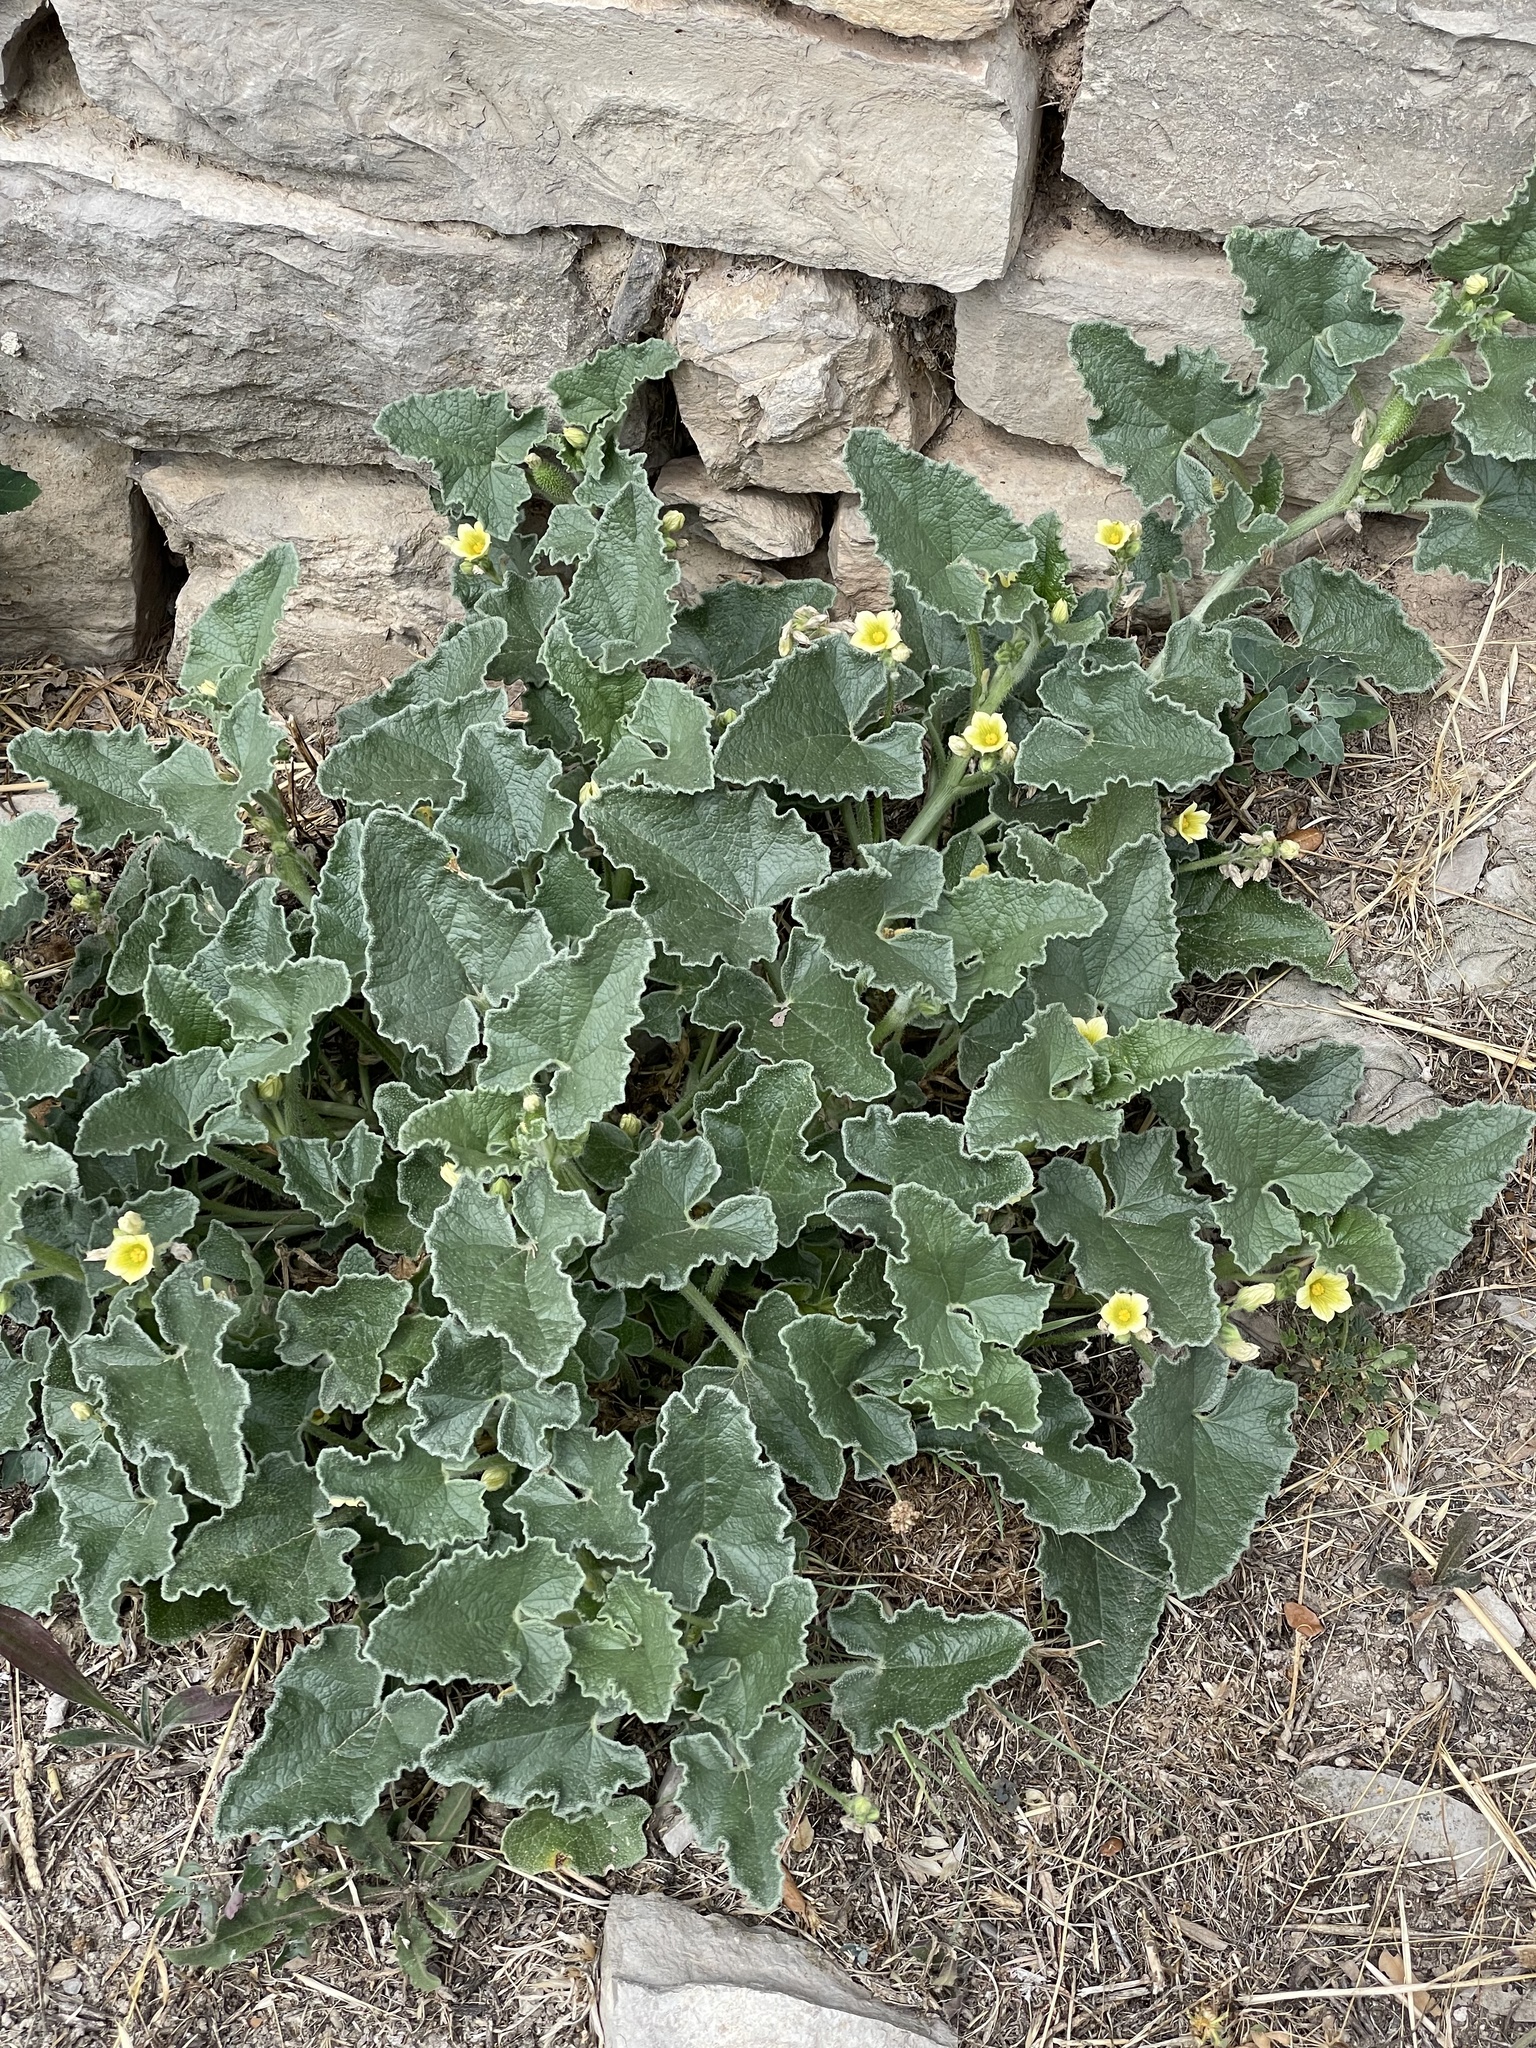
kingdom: Plantae
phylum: Tracheophyta
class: Magnoliopsida
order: Cucurbitales
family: Cucurbitaceae
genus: Ecballium
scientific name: Ecballium elaterium
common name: Squirting cucumber
